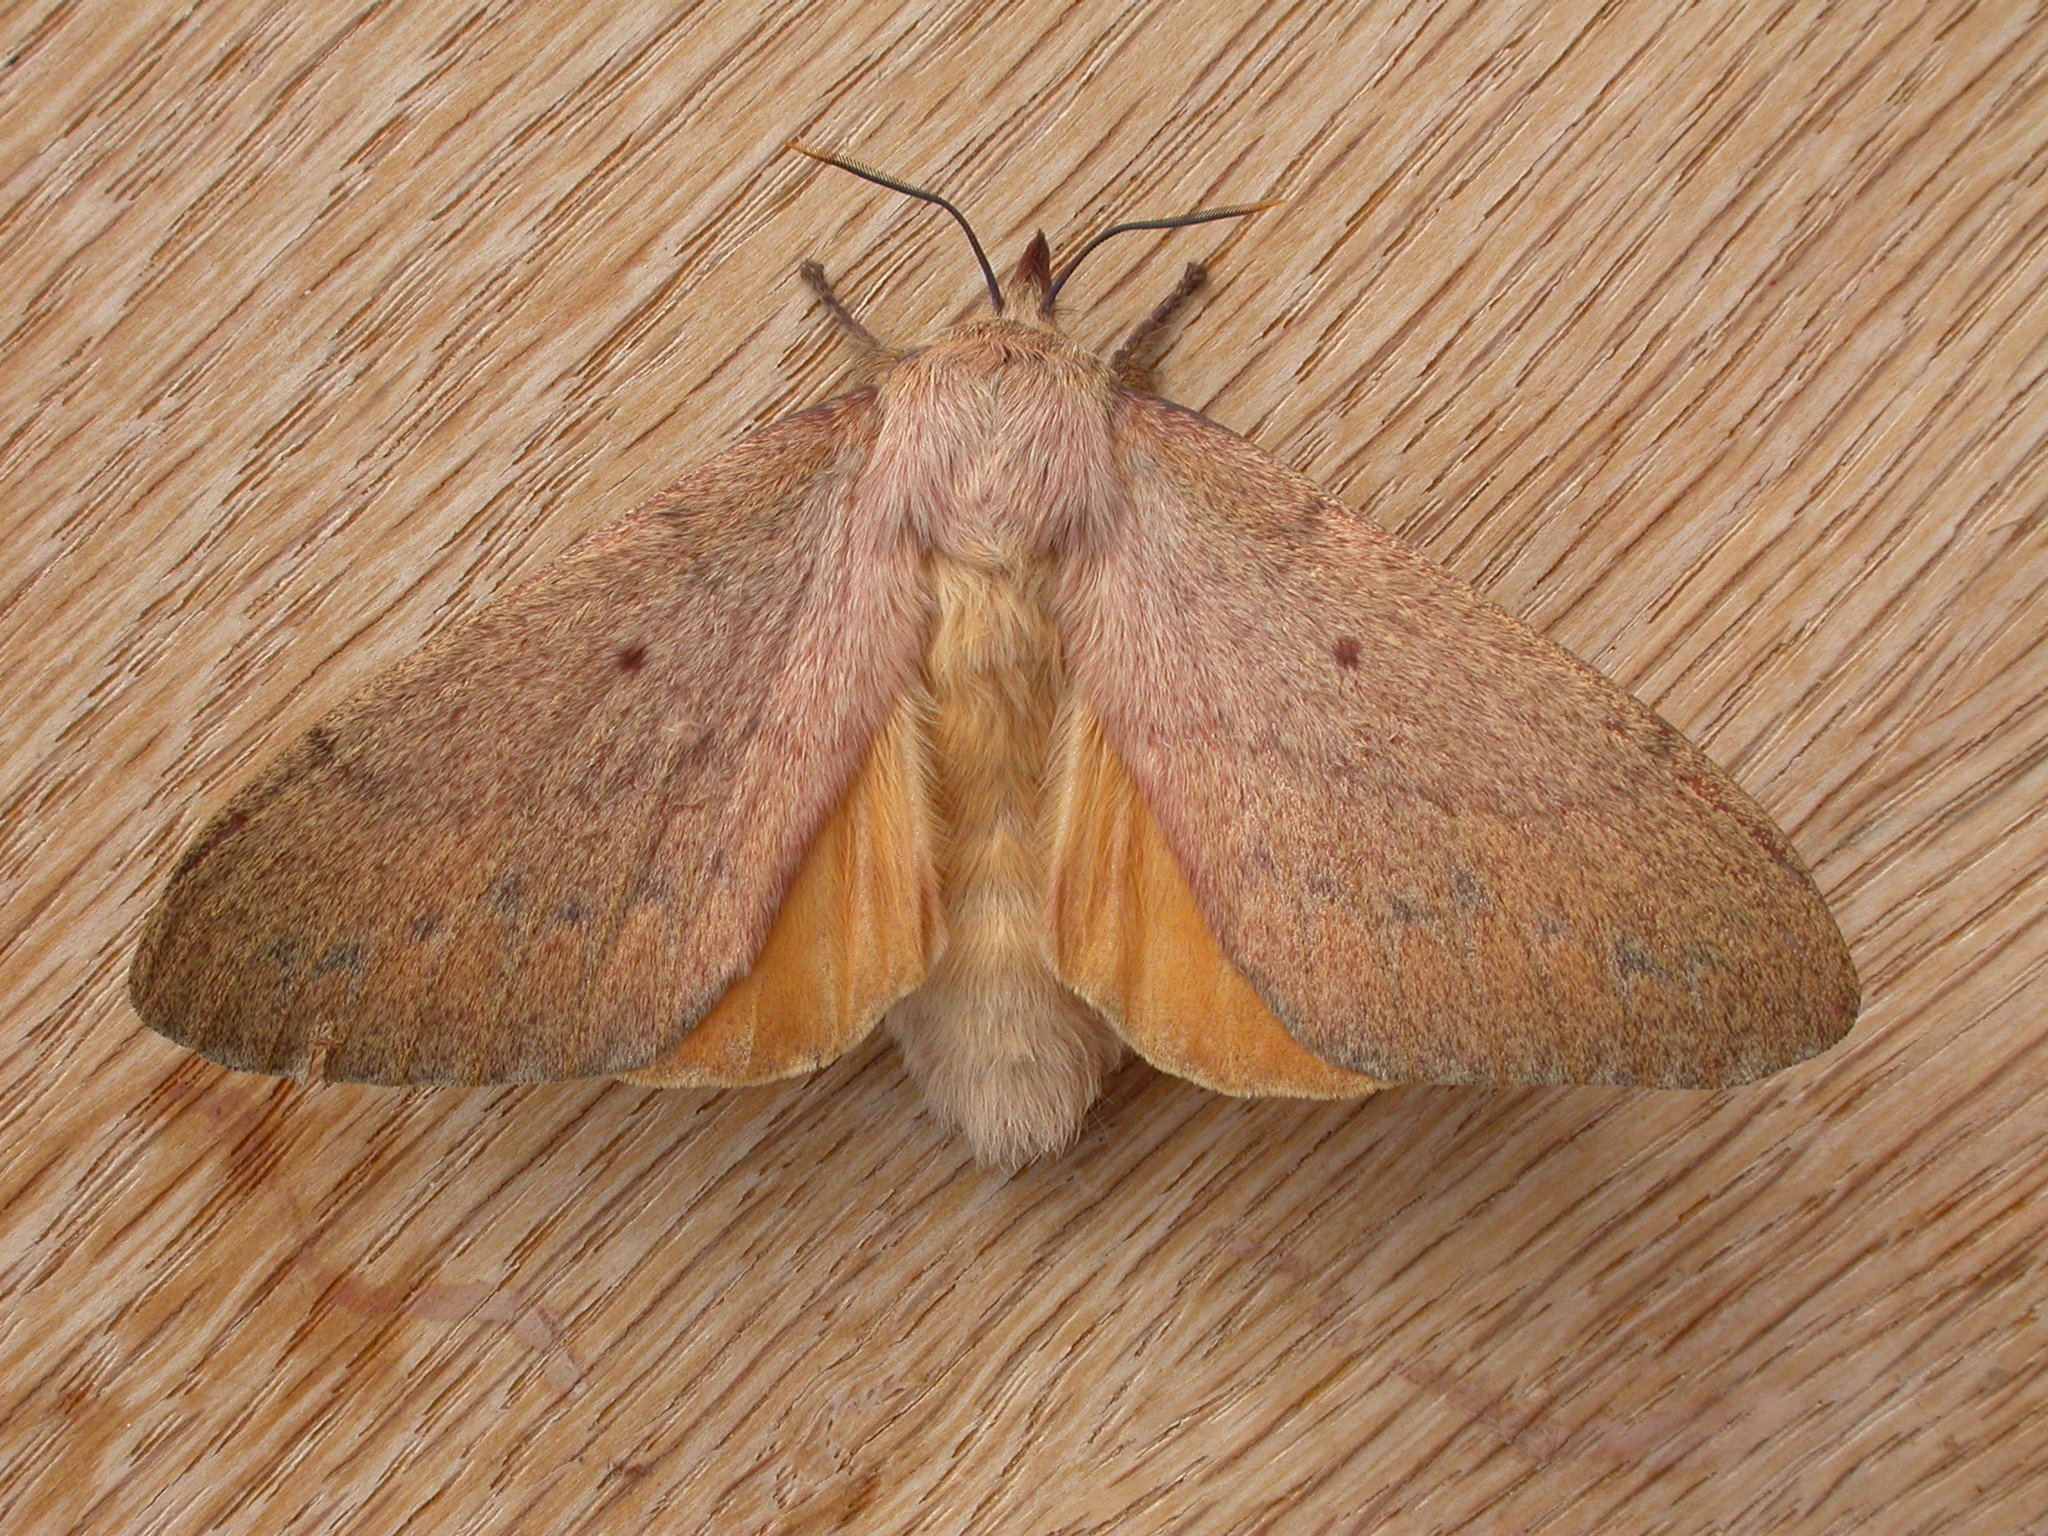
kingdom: Animalia
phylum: Arthropoda
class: Insecta
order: Lepidoptera
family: Lasiocampidae
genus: Entometa
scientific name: Entometa apicalis
